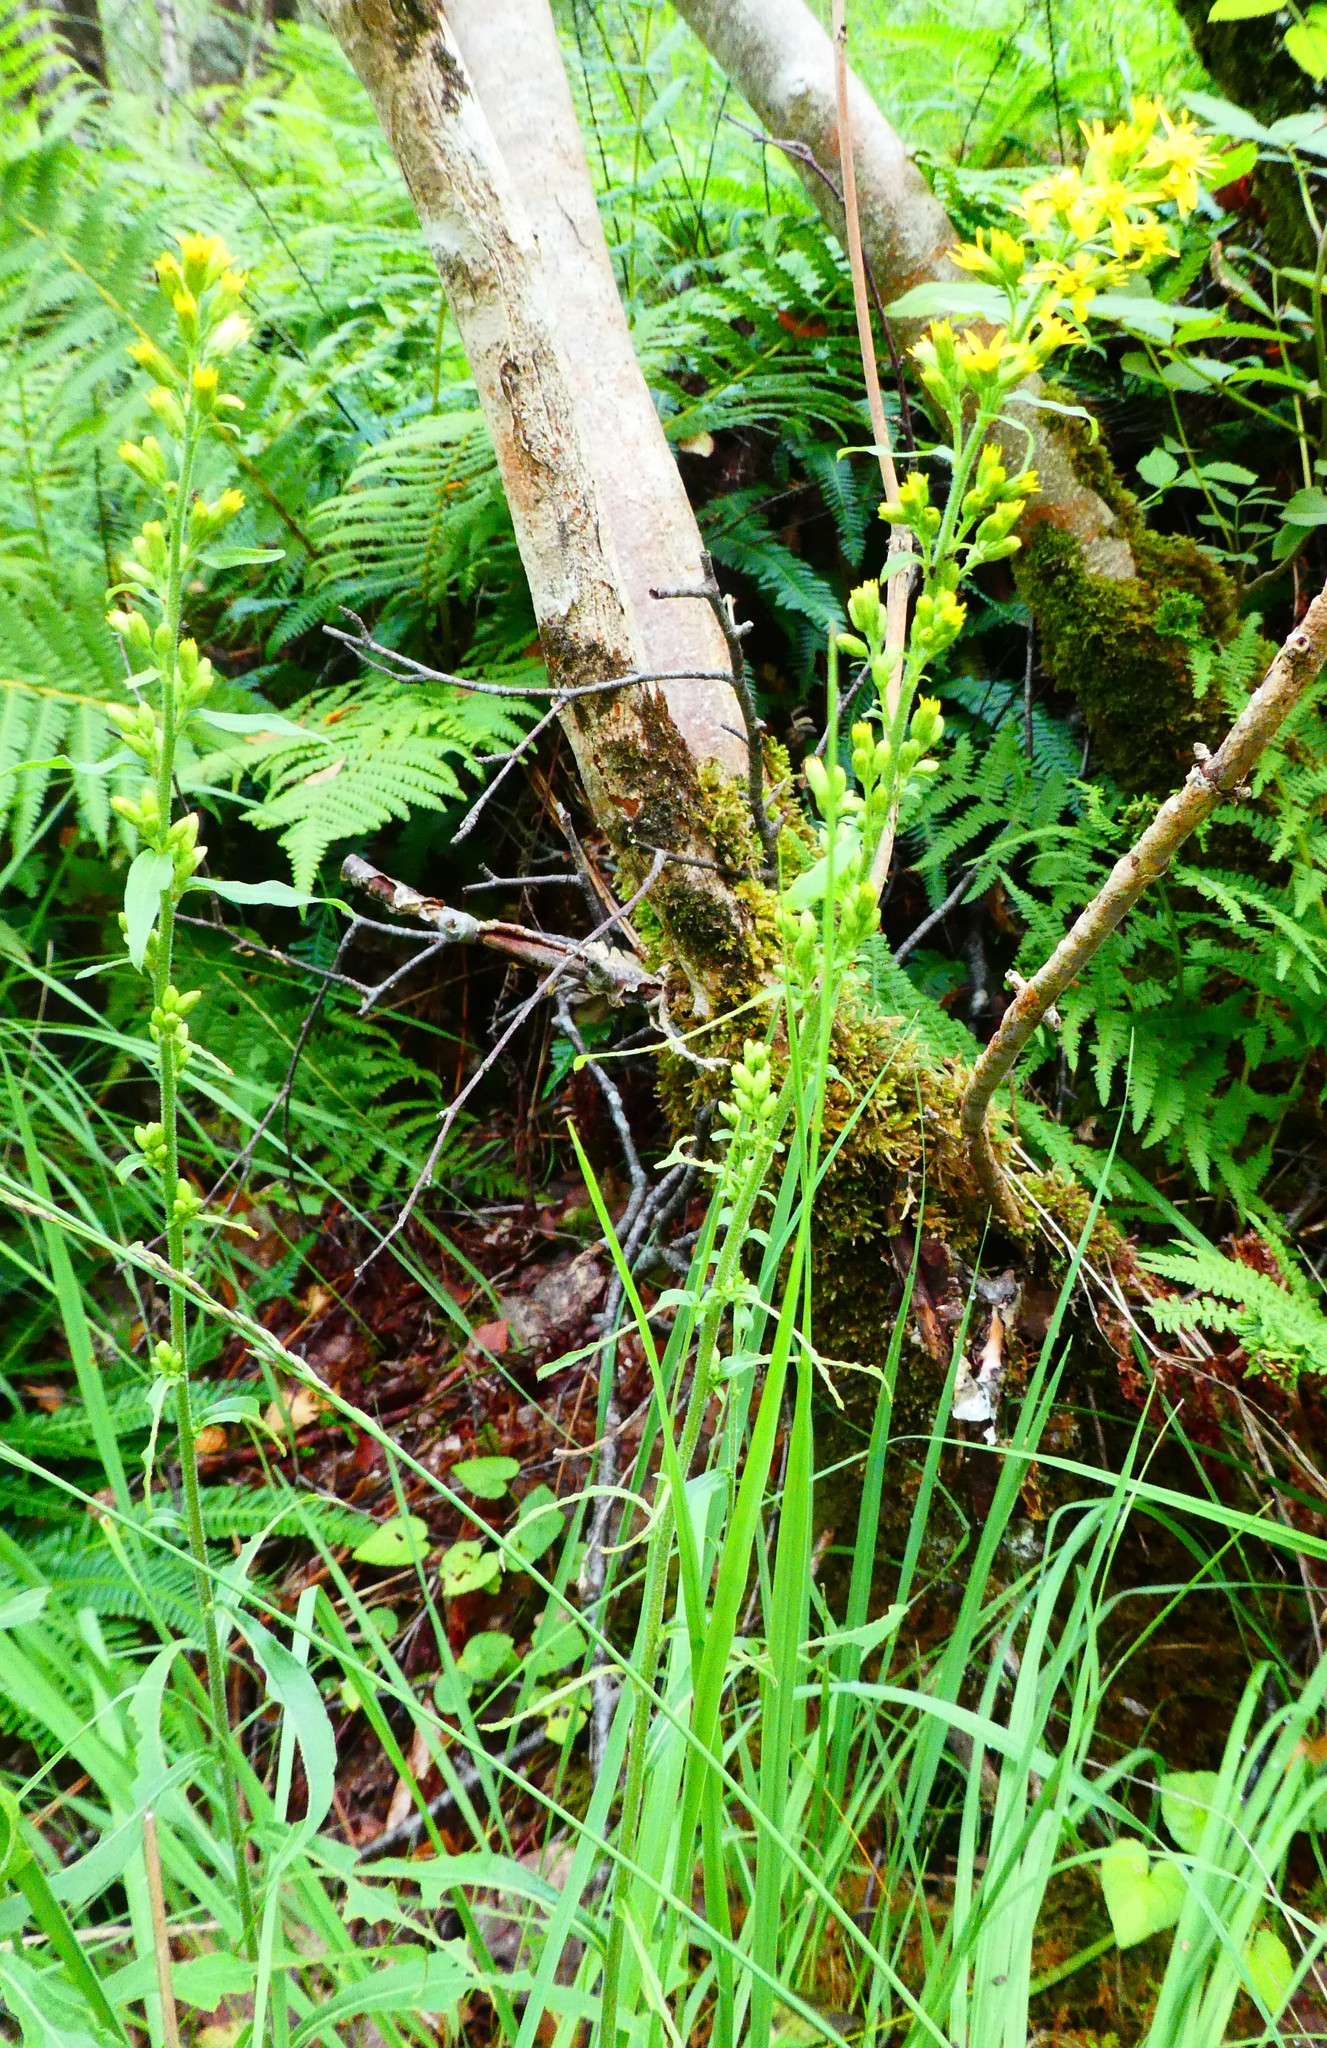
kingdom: Plantae
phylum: Tracheophyta
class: Magnoliopsida
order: Asterales
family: Asteraceae
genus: Solidago
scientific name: Solidago virgaurea
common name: Goldenrod
